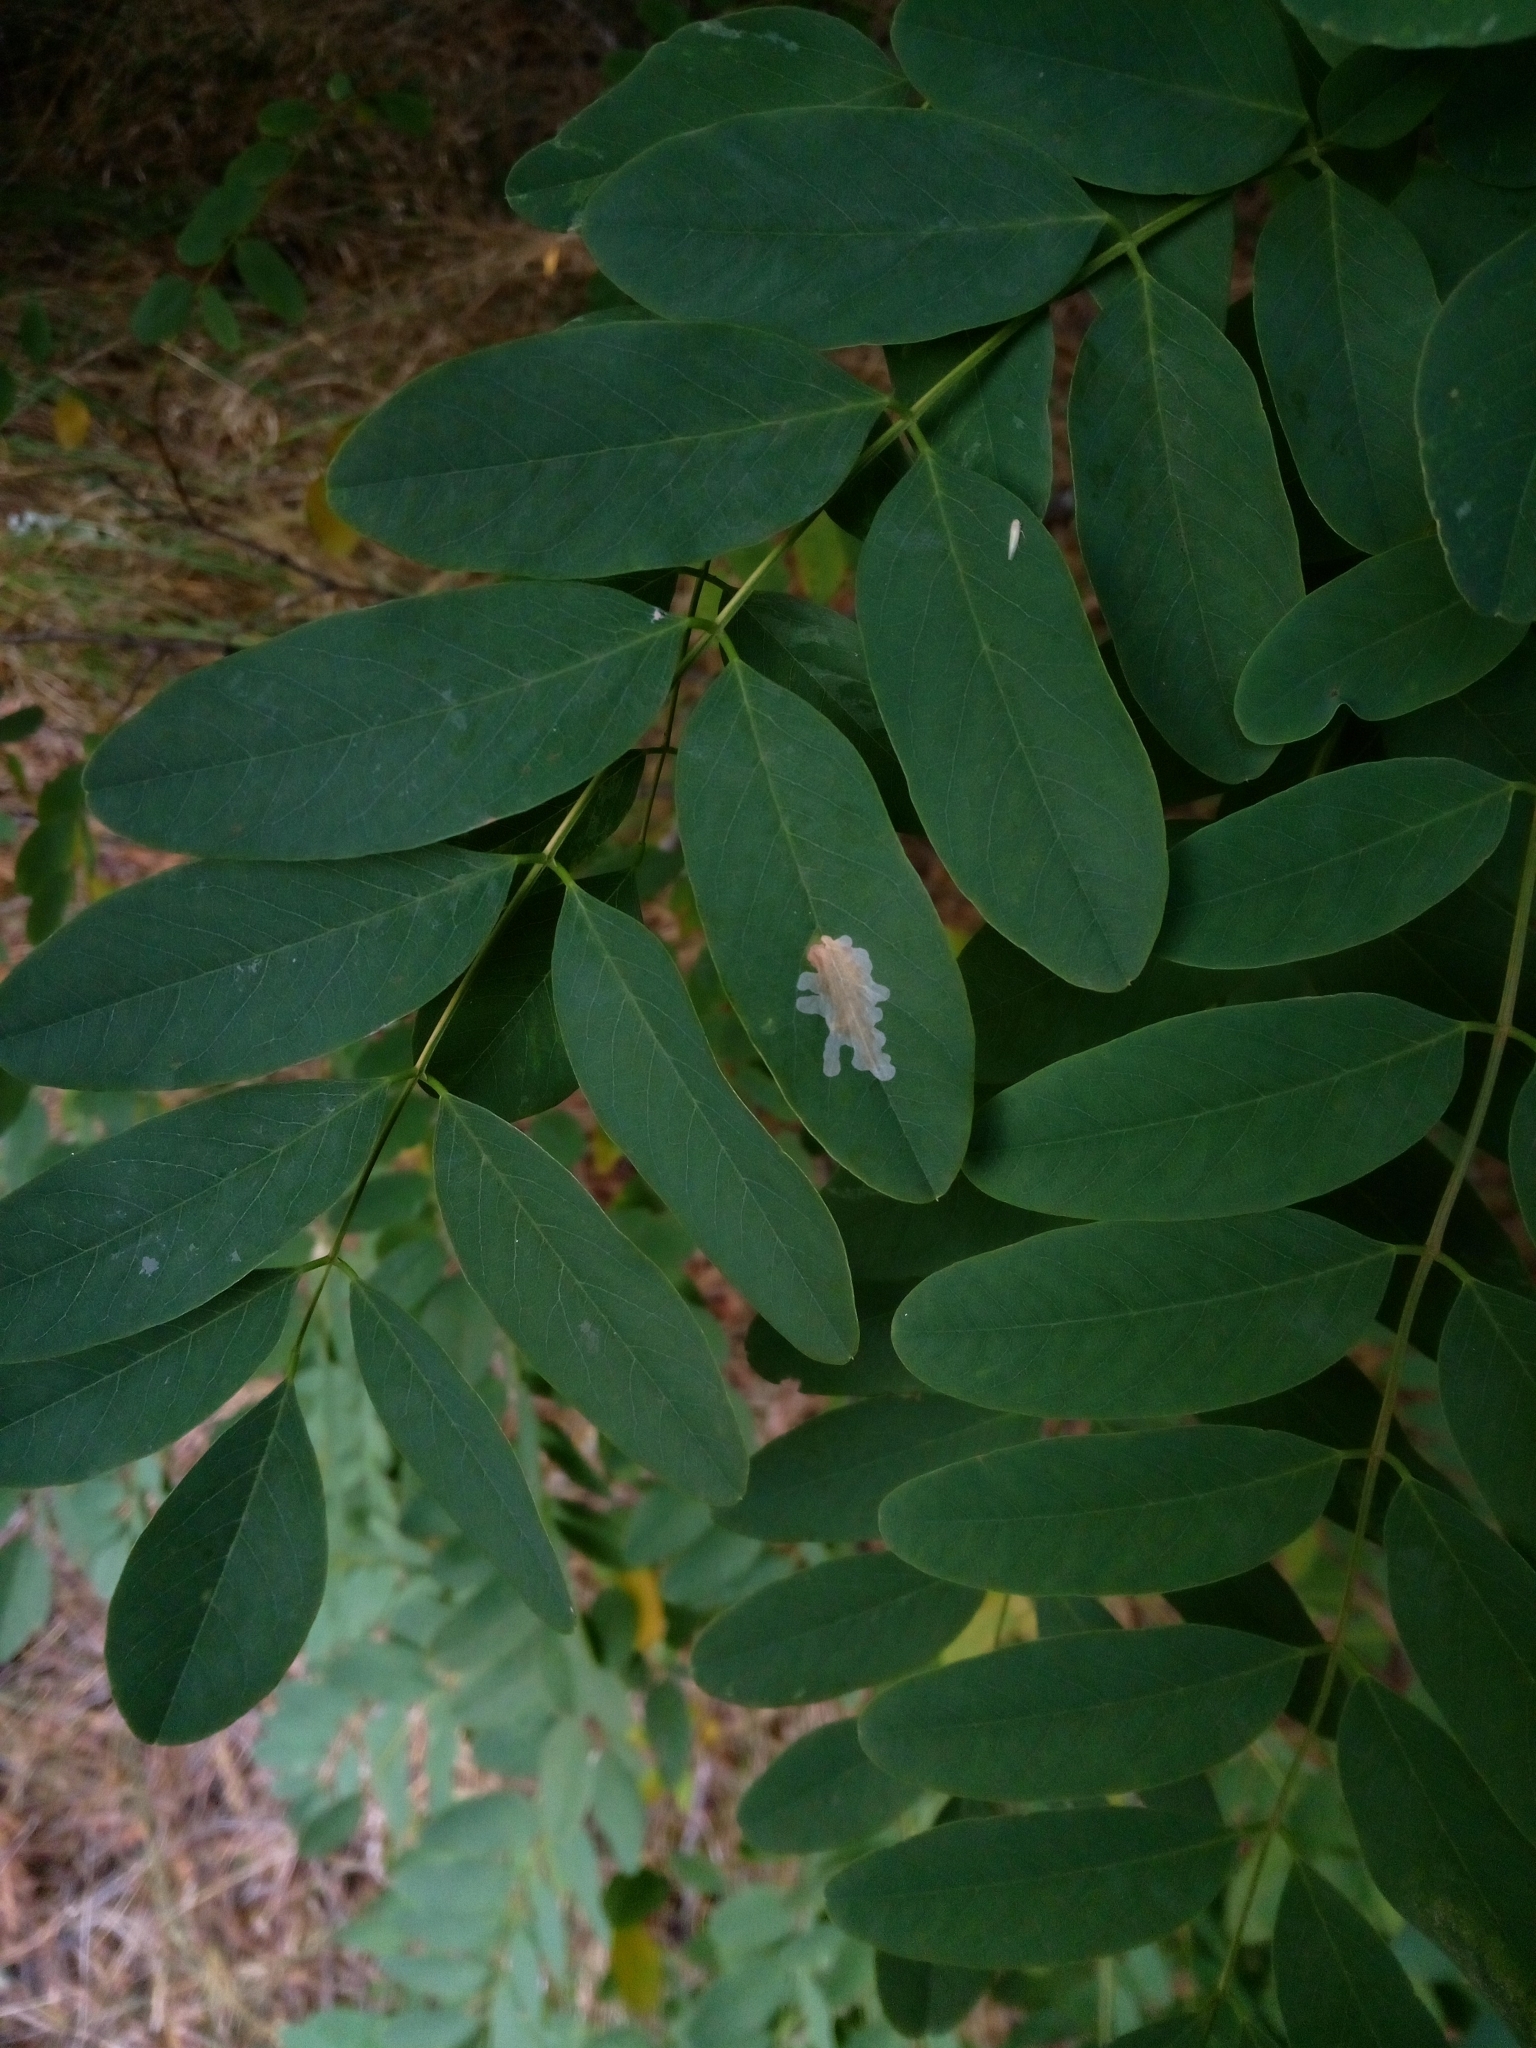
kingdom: Animalia
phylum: Arthropoda
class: Insecta
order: Lepidoptera
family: Gracillariidae
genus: Parectopa
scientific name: Parectopa robiniella
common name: Locust digitate leafminer
